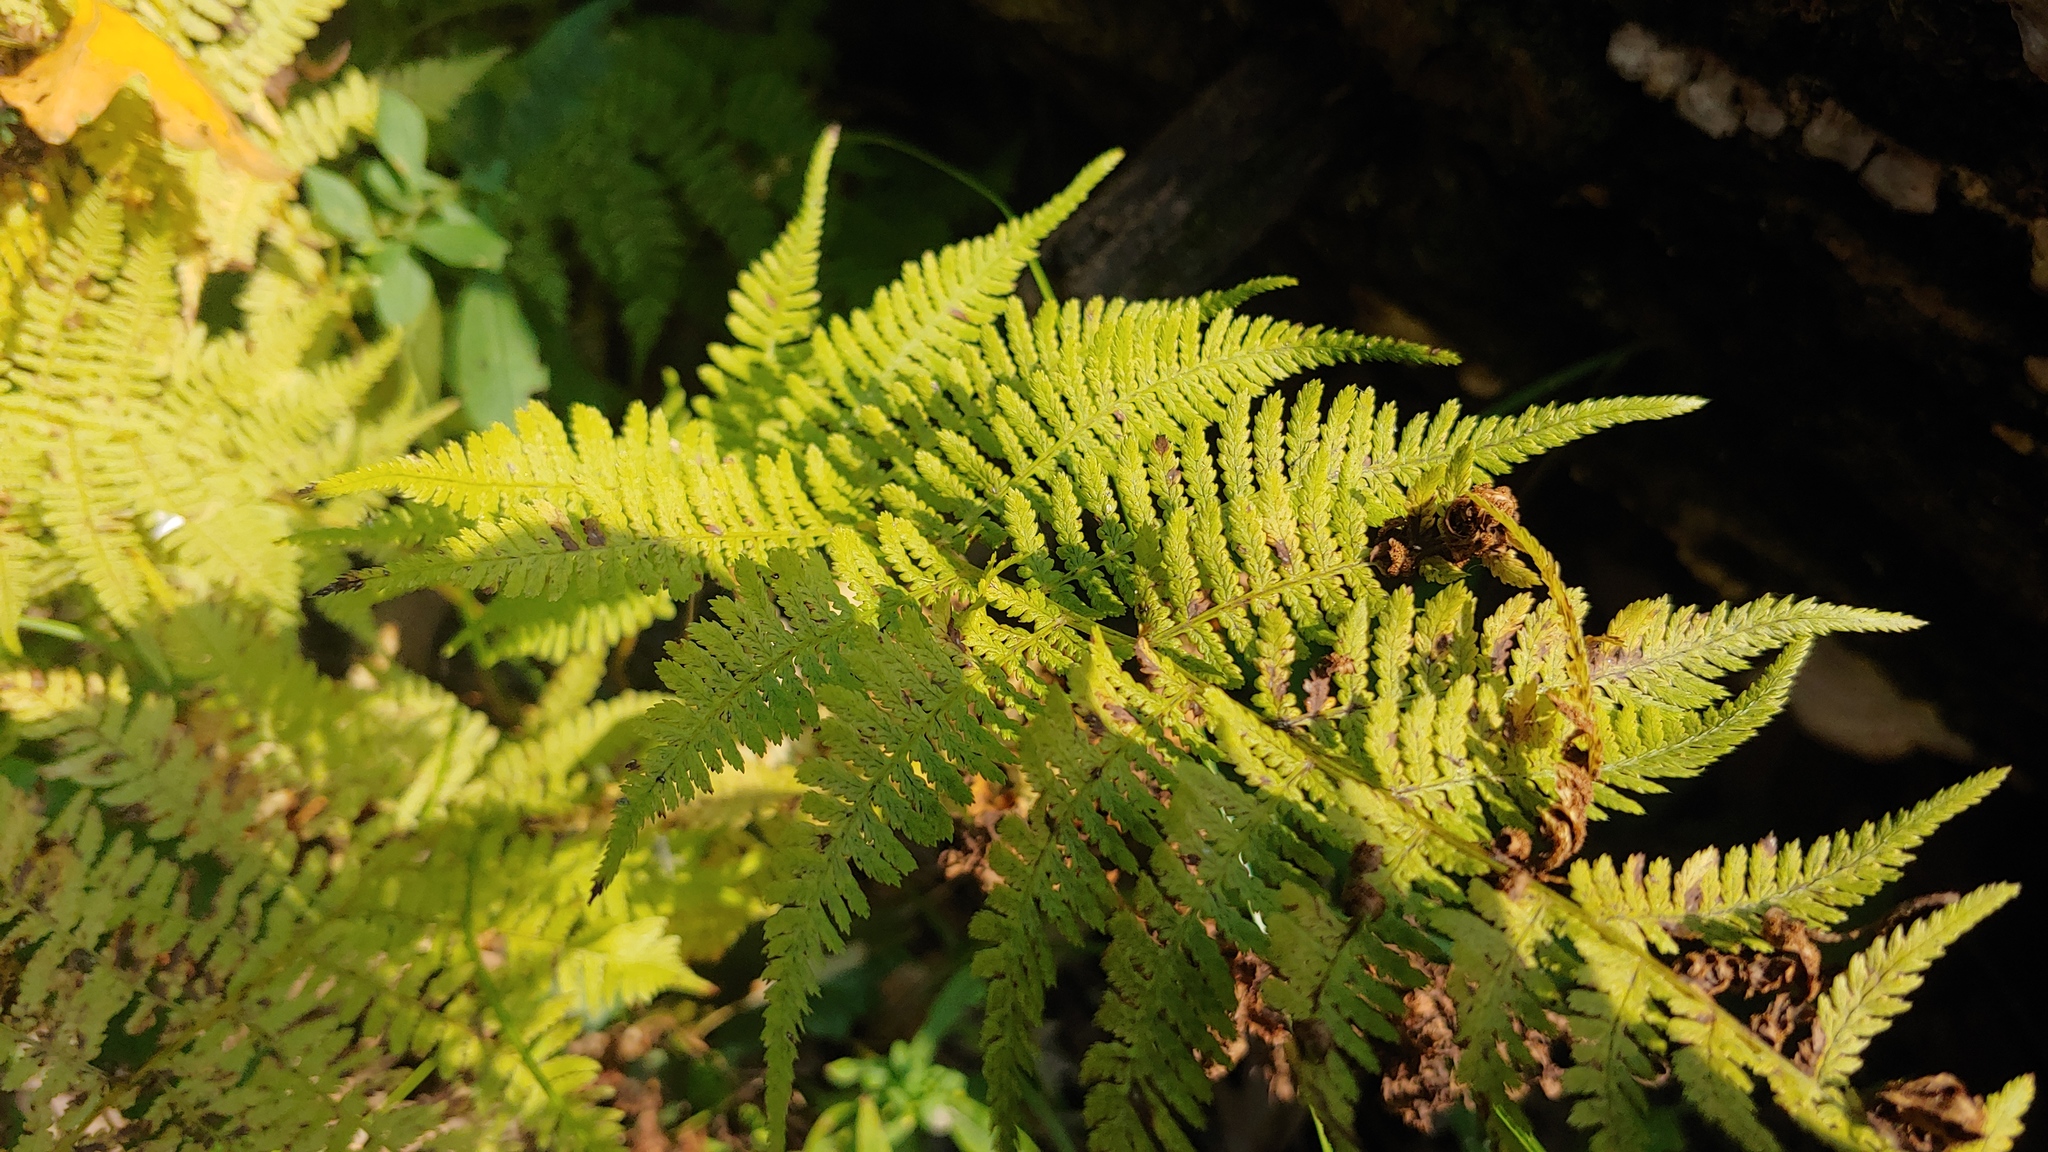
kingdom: Plantae
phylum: Tracheophyta
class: Polypodiopsida
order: Polypodiales
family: Athyriaceae
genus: Athyrium
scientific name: Athyrium angustum
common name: Northern lady fern
